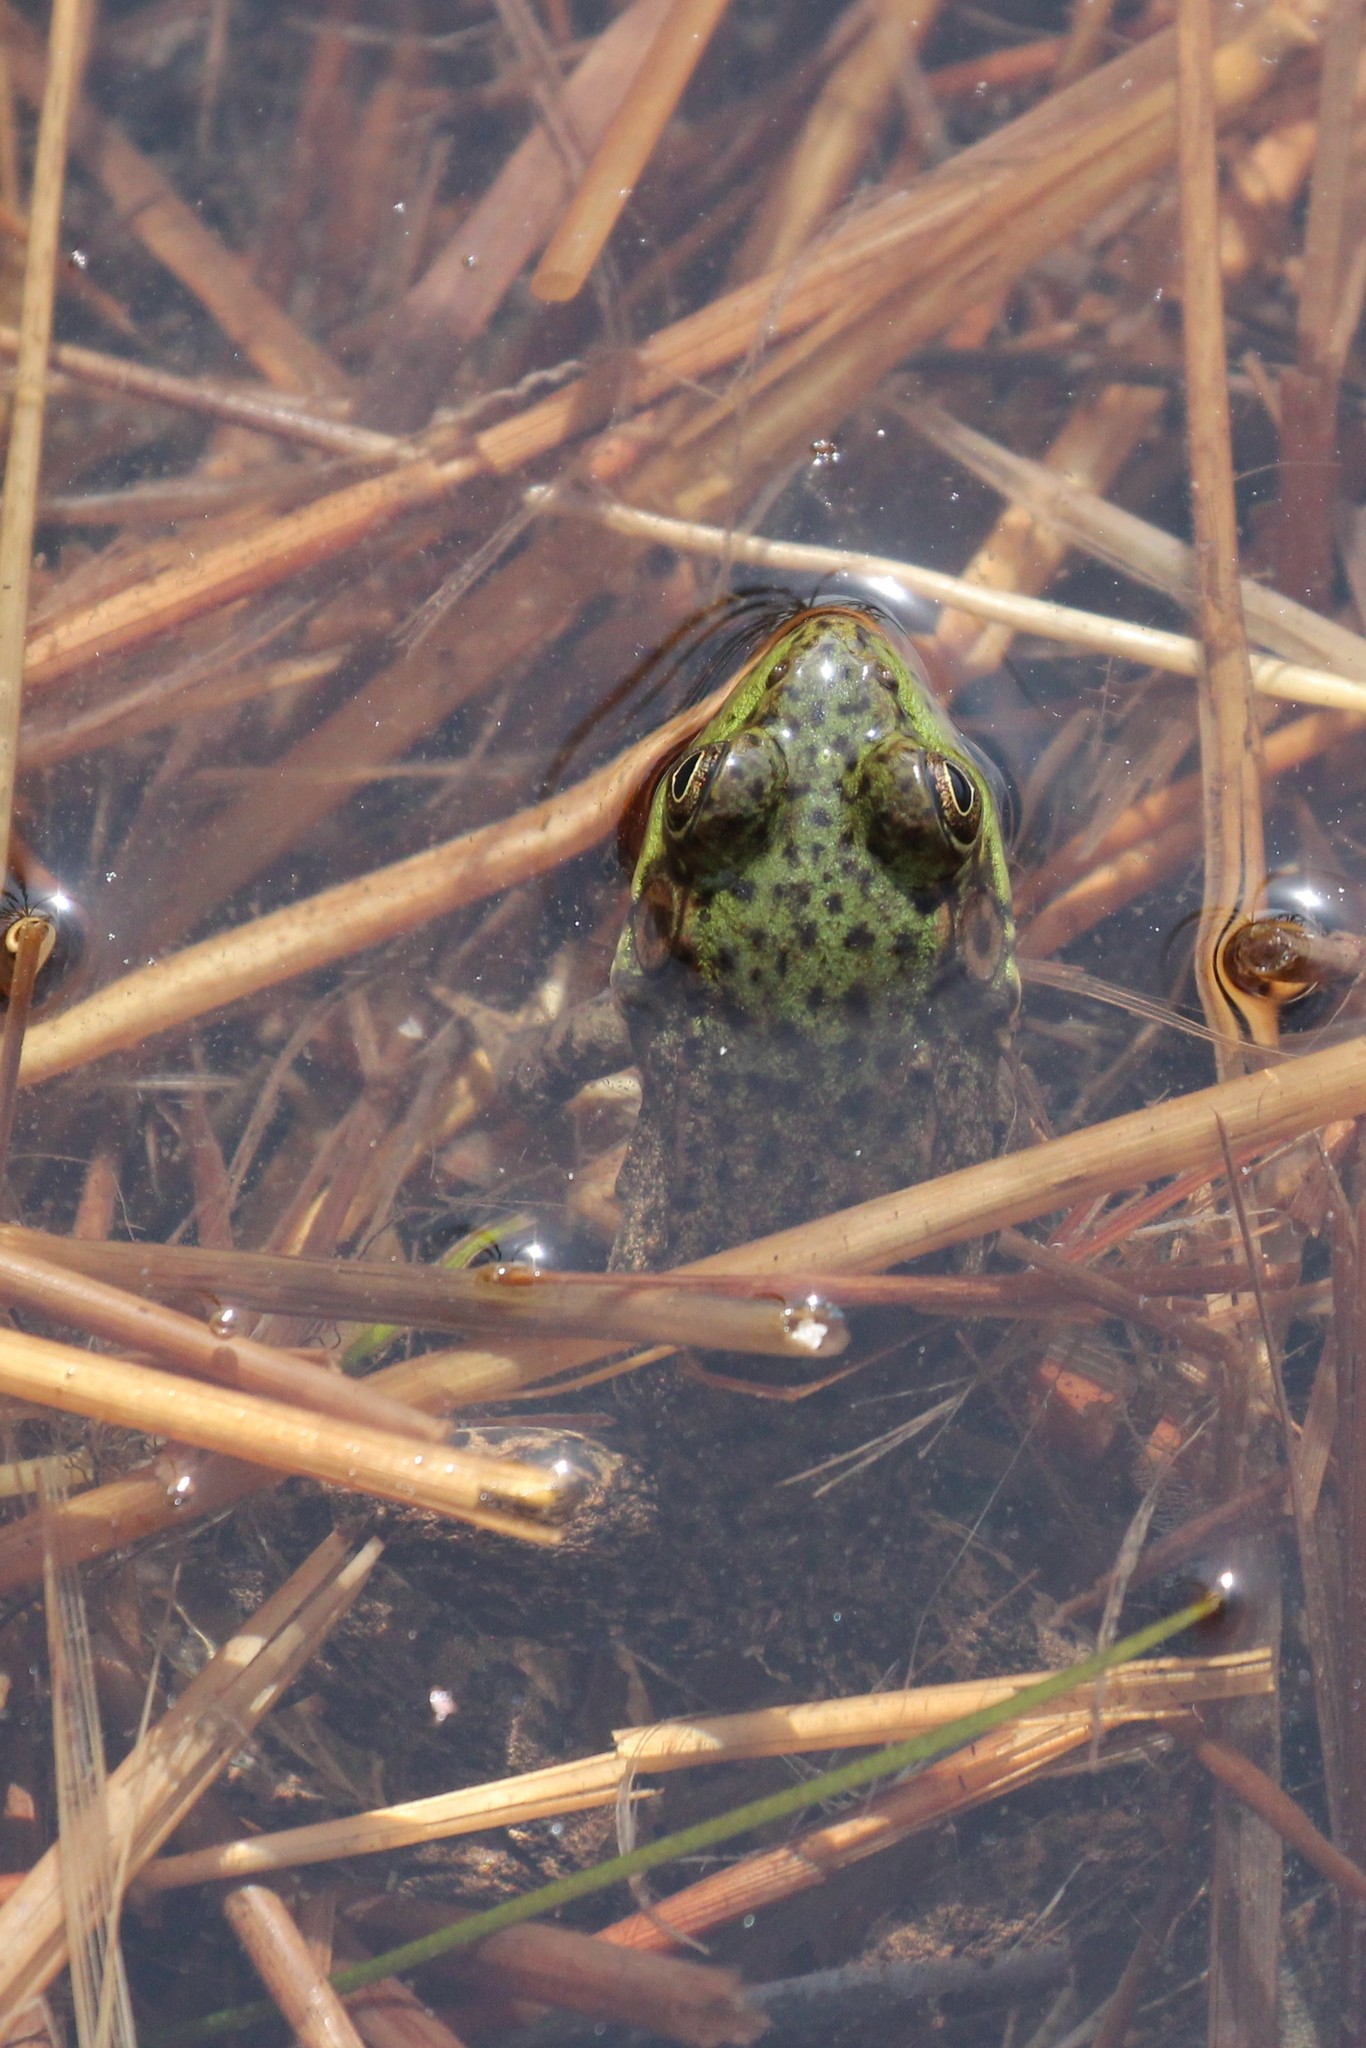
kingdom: Animalia
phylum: Chordata
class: Amphibia
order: Anura
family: Ranidae
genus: Lithobates
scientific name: Lithobates clamitans
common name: Green frog
